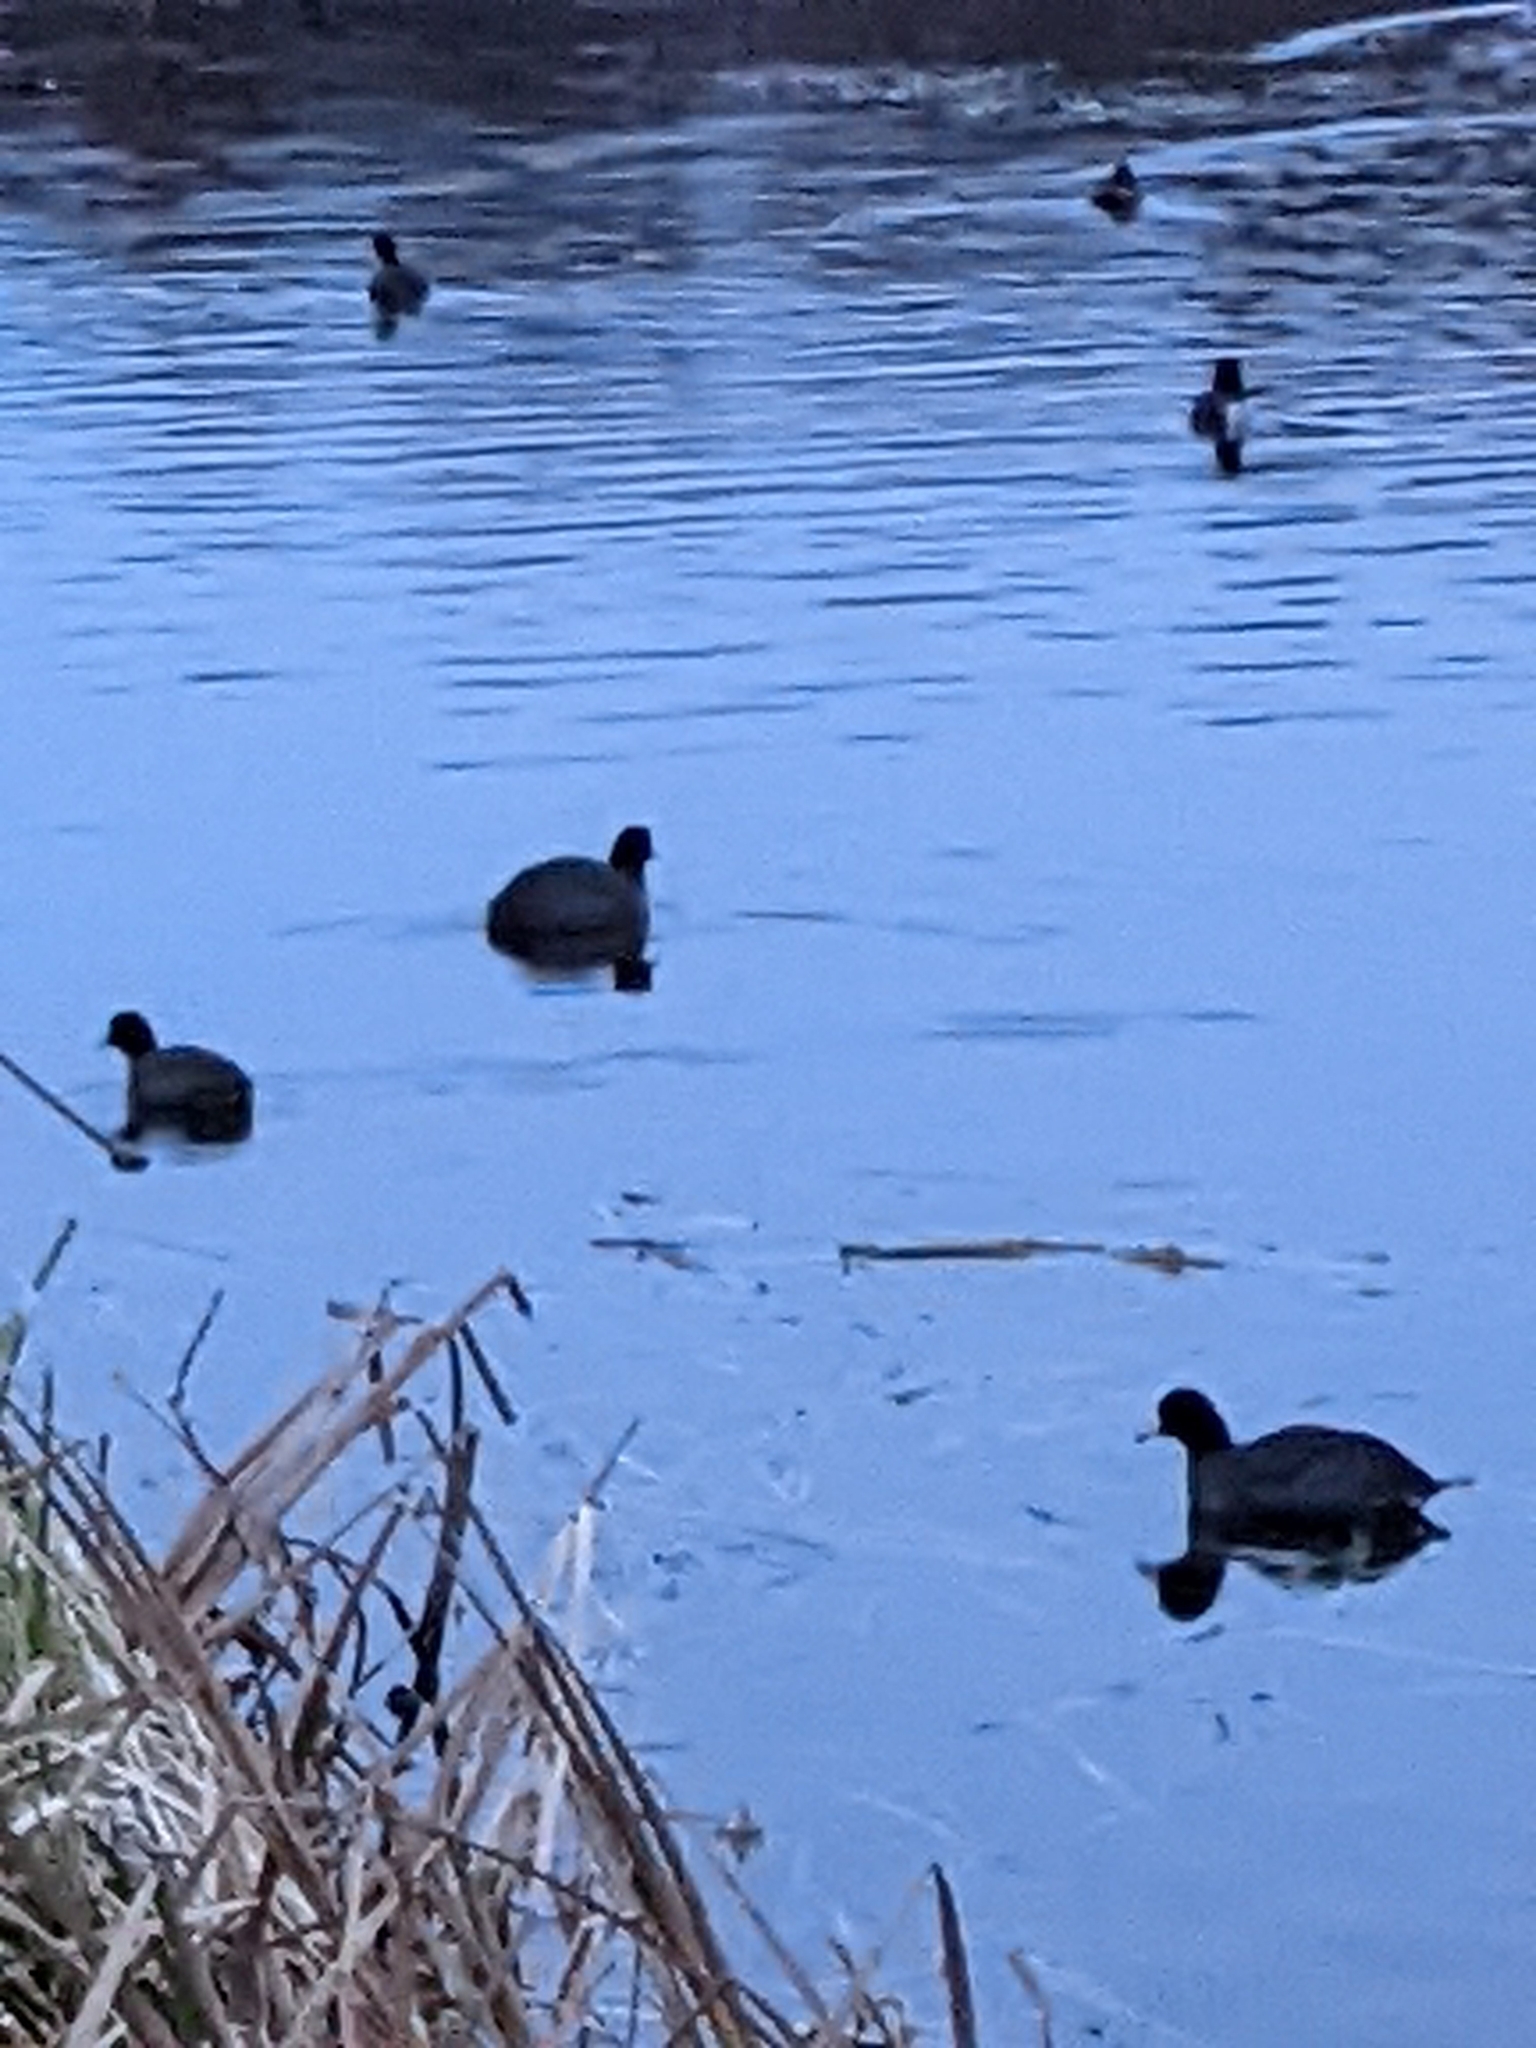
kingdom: Animalia
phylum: Chordata
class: Aves
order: Gruiformes
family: Rallidae
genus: Fulica
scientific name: Fulica americana
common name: American coot
